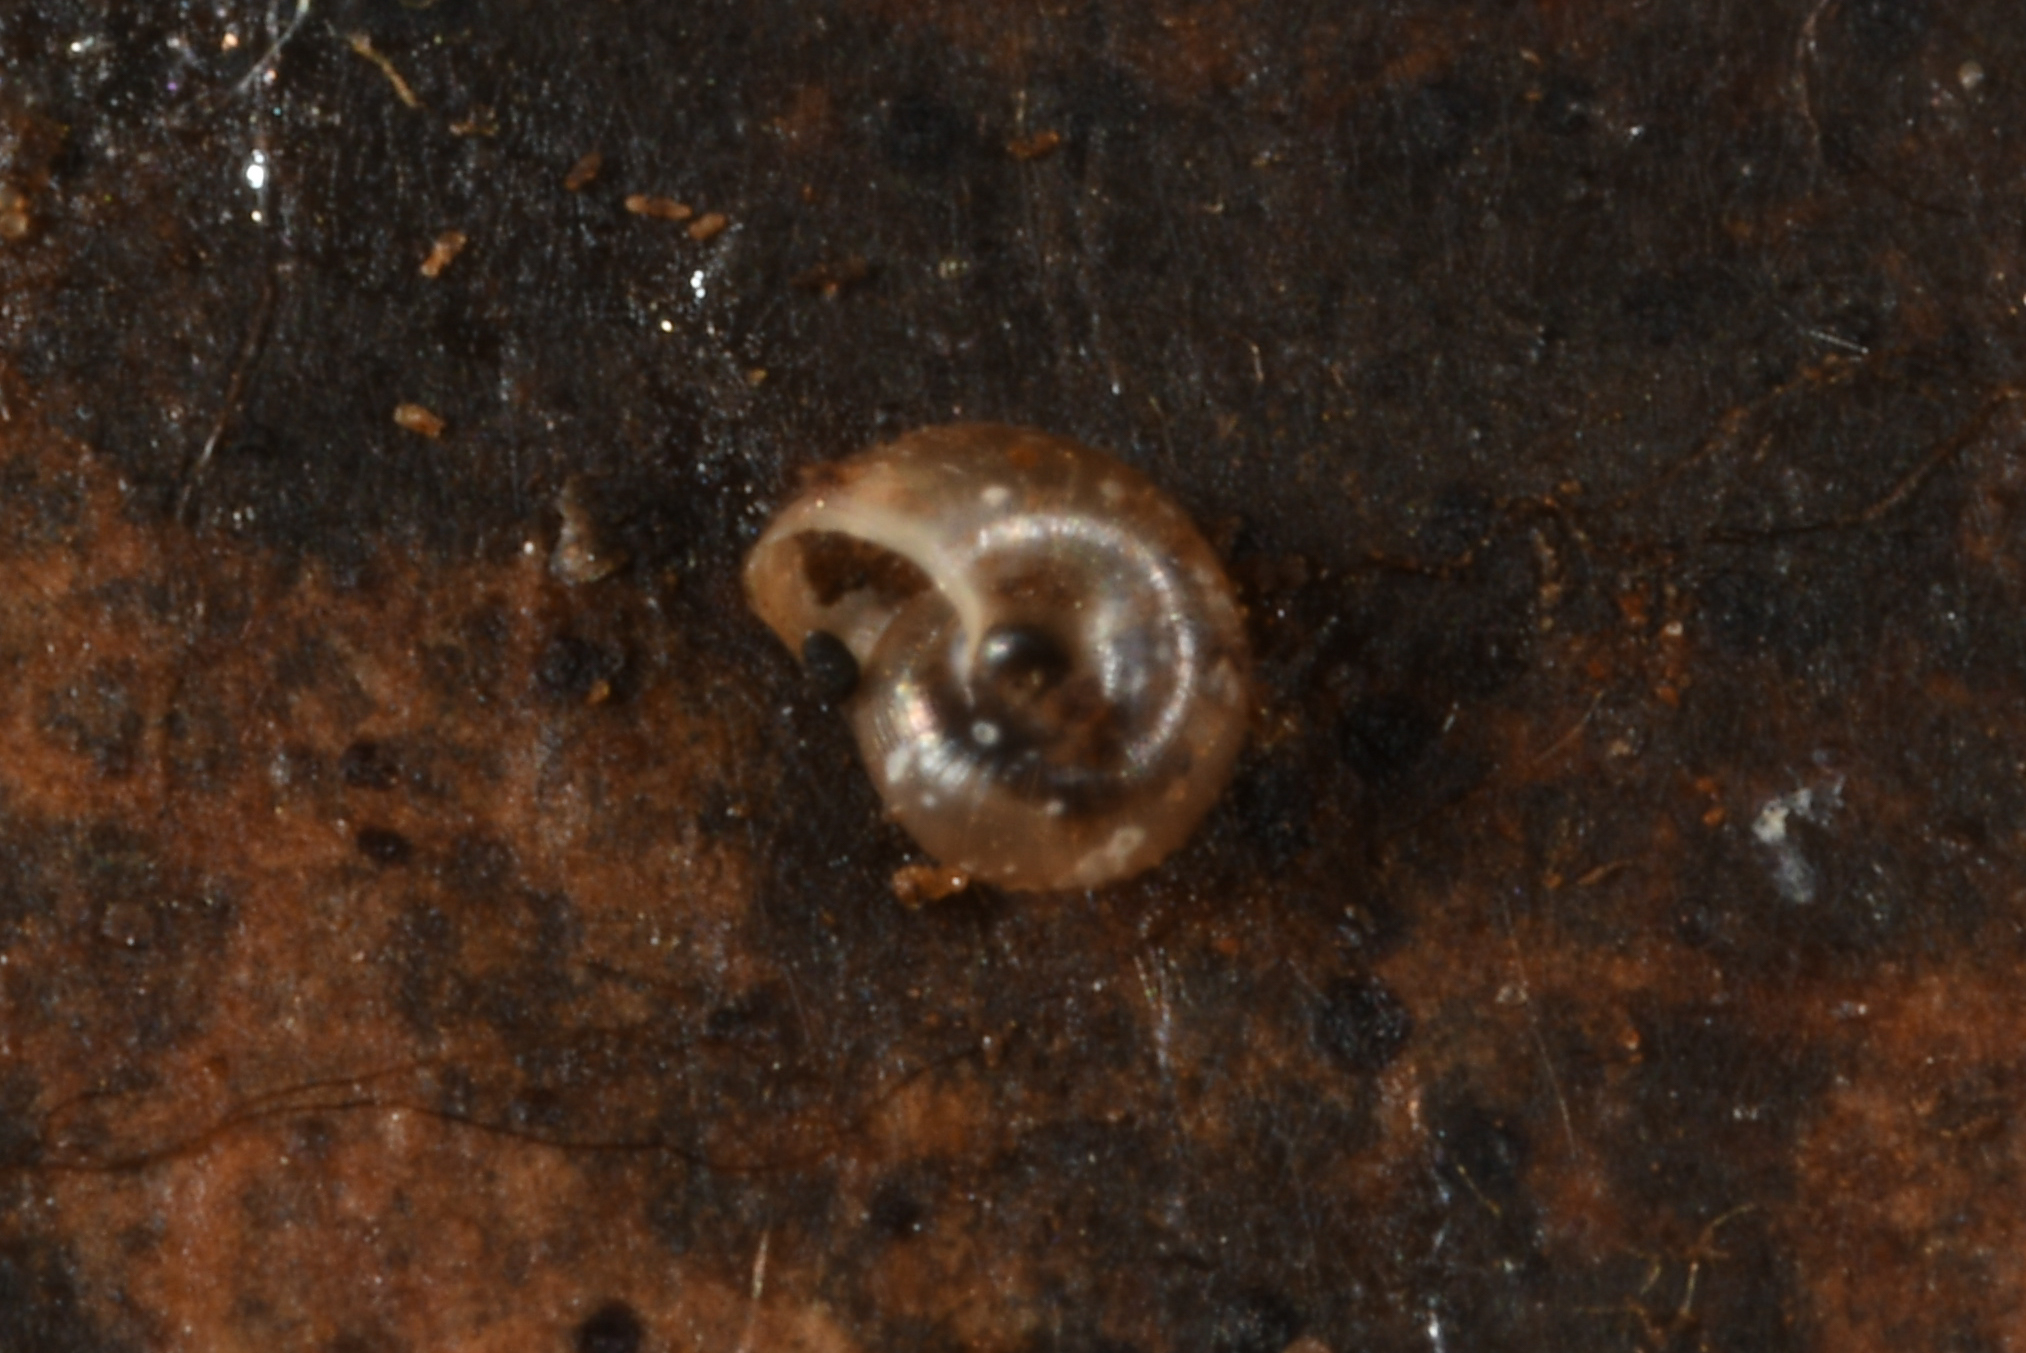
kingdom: Animalia
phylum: Mollusca
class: Gastropoda
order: Stylommatophora
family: Punctidae
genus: Paralaoma
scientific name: Paralaoma servilis
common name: Pinhead spot
